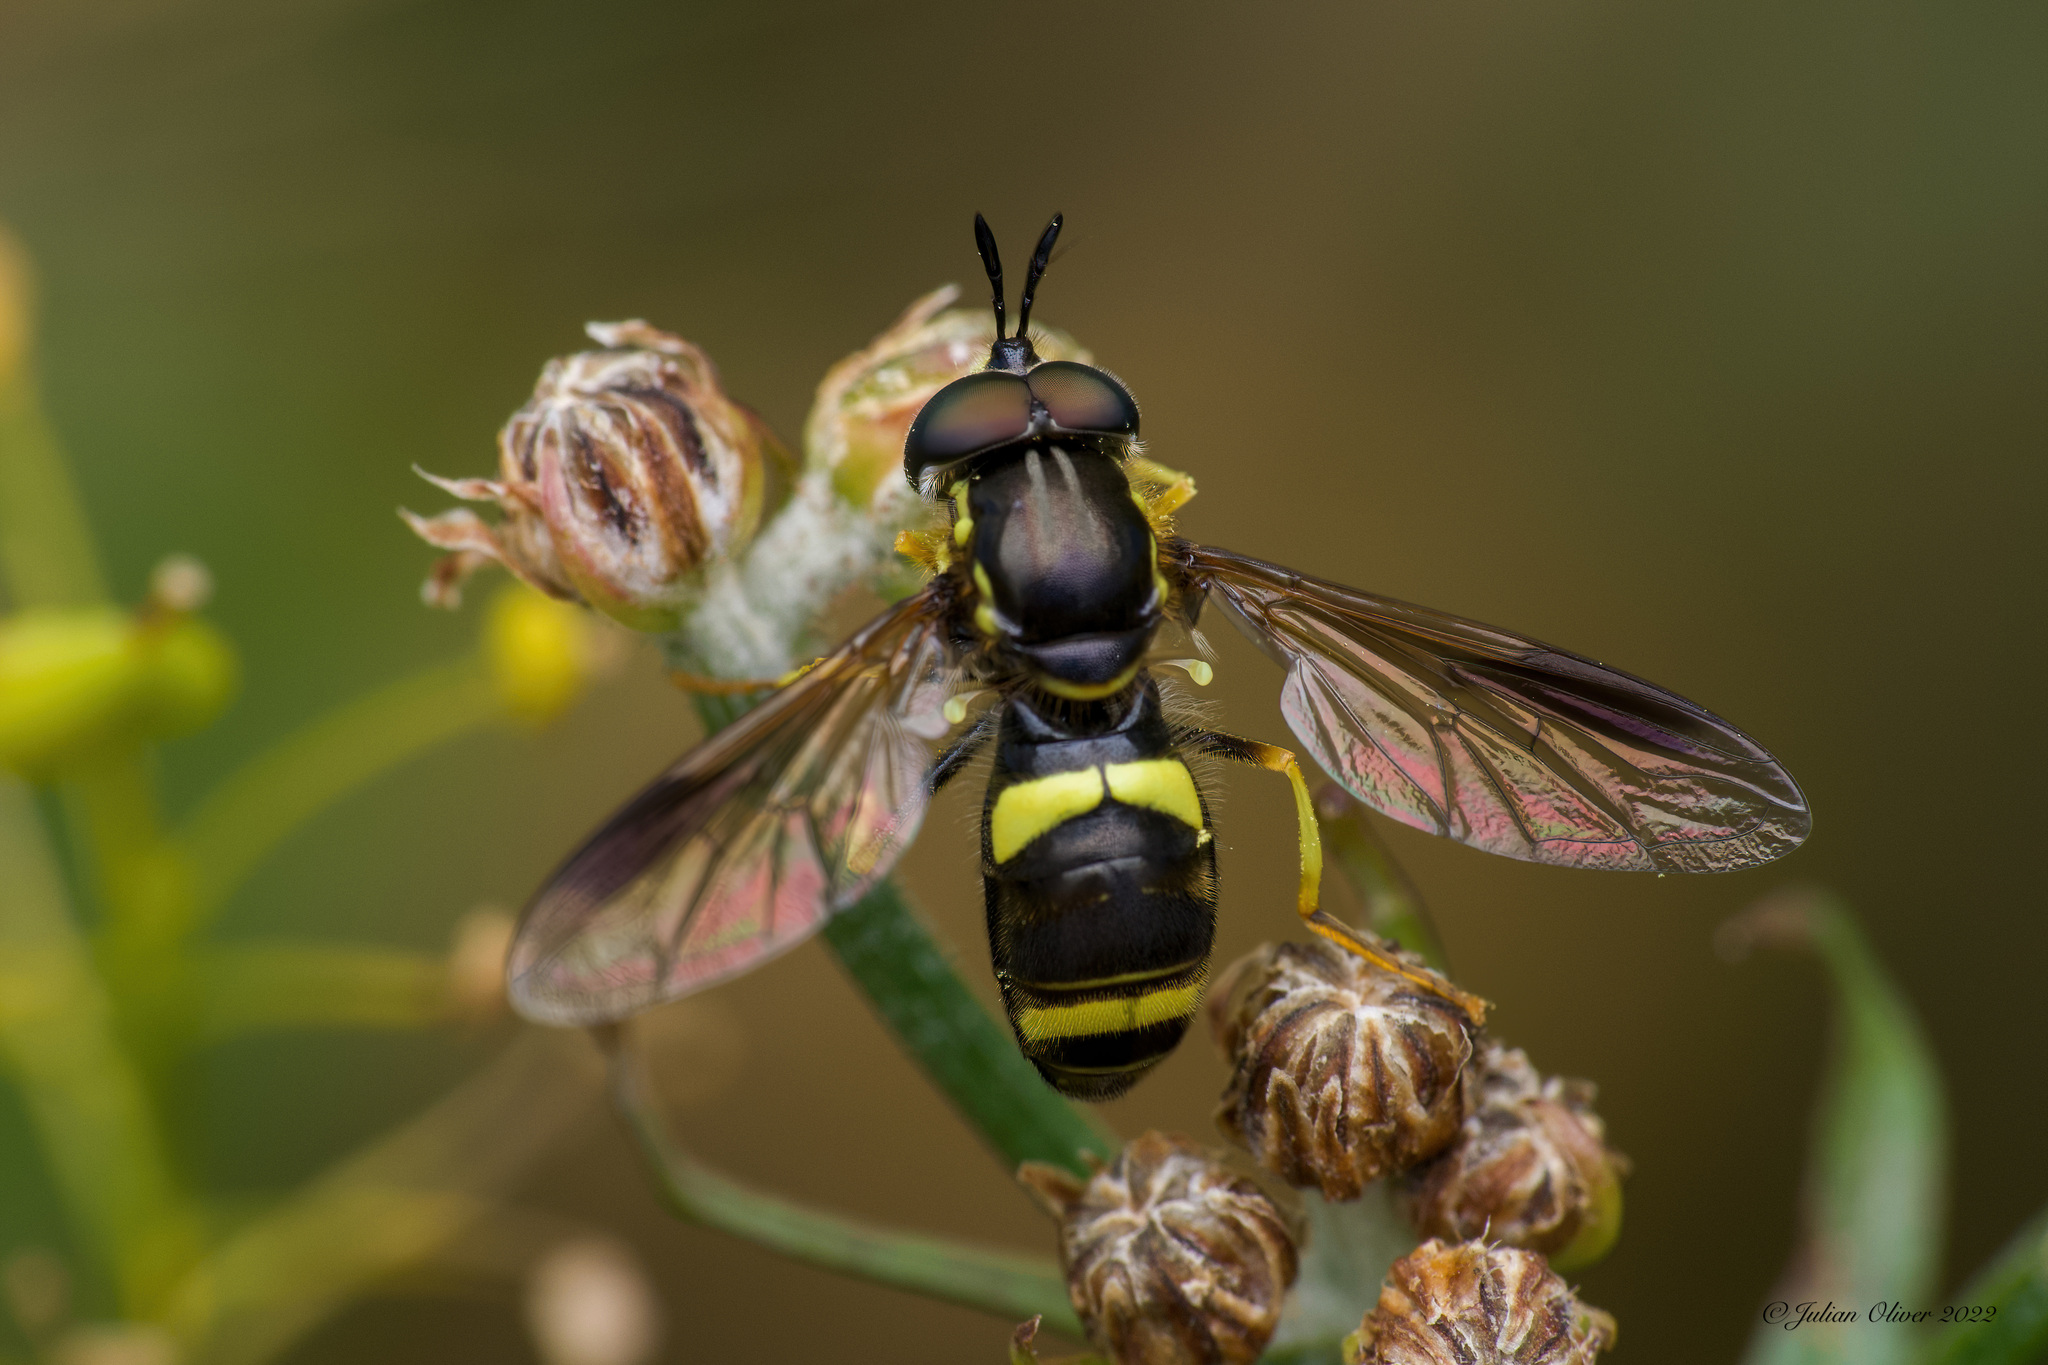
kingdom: Animalia
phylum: Arthropoda
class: Insecta
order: Diptera
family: Syrphidae
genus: Chrysotoxum
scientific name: Chrysotoxum bicincta
